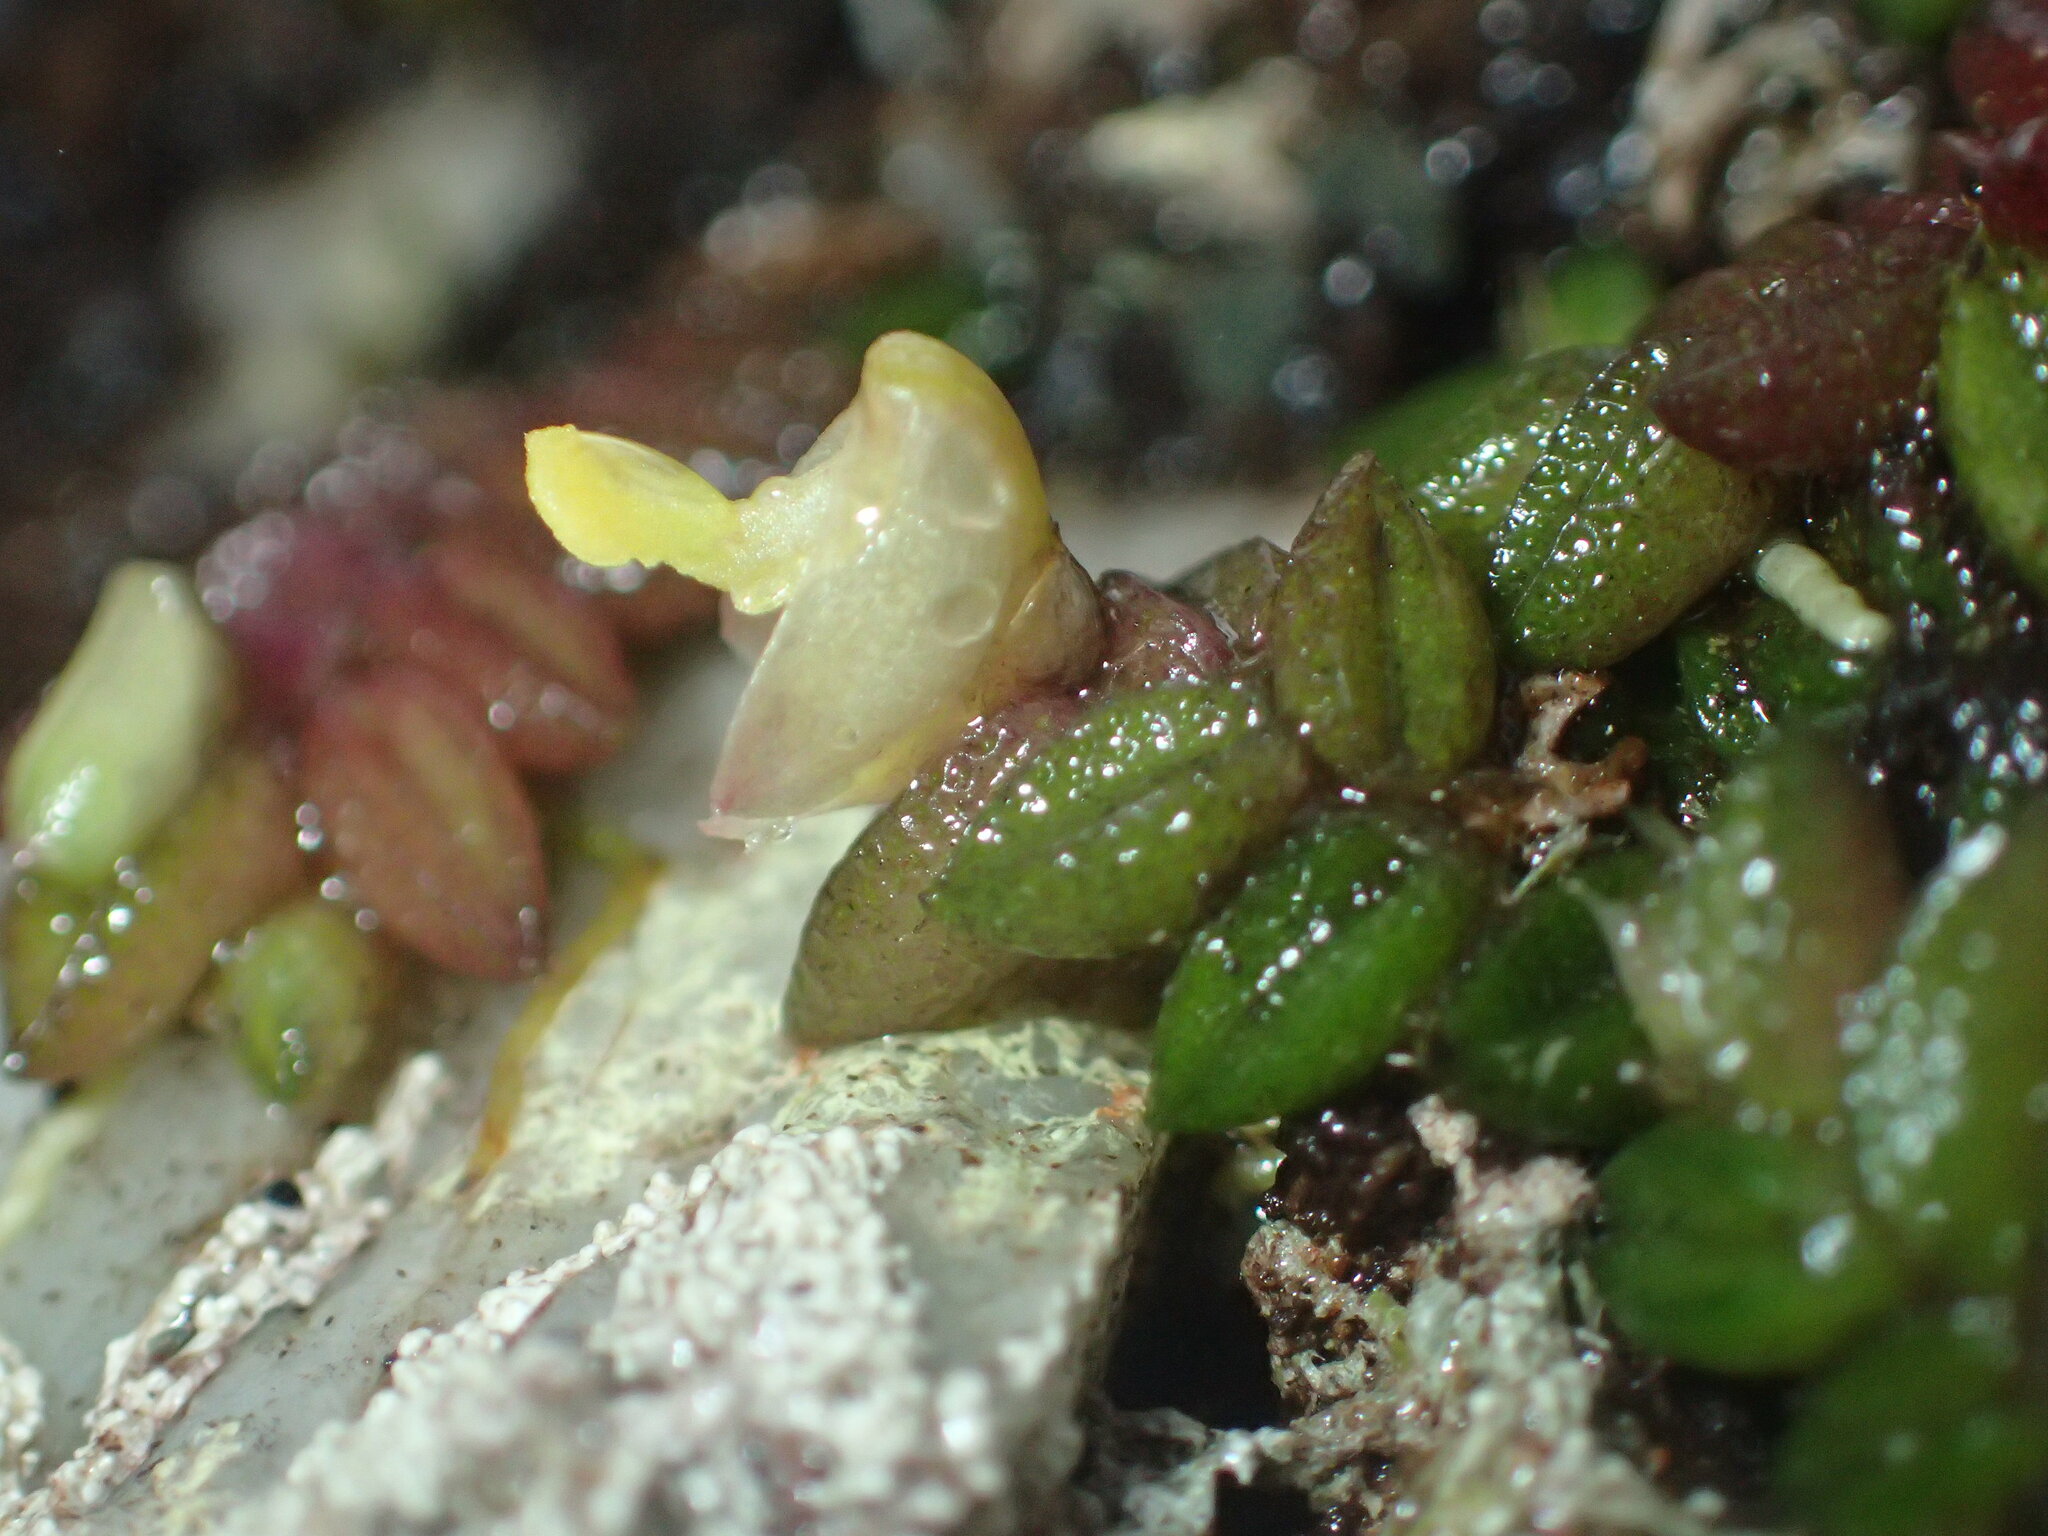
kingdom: Plantae
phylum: Tracheophyta
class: Liliopsida
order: Asparagales
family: Orchidaceae
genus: Dendrobium
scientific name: Dendrobium toressae
